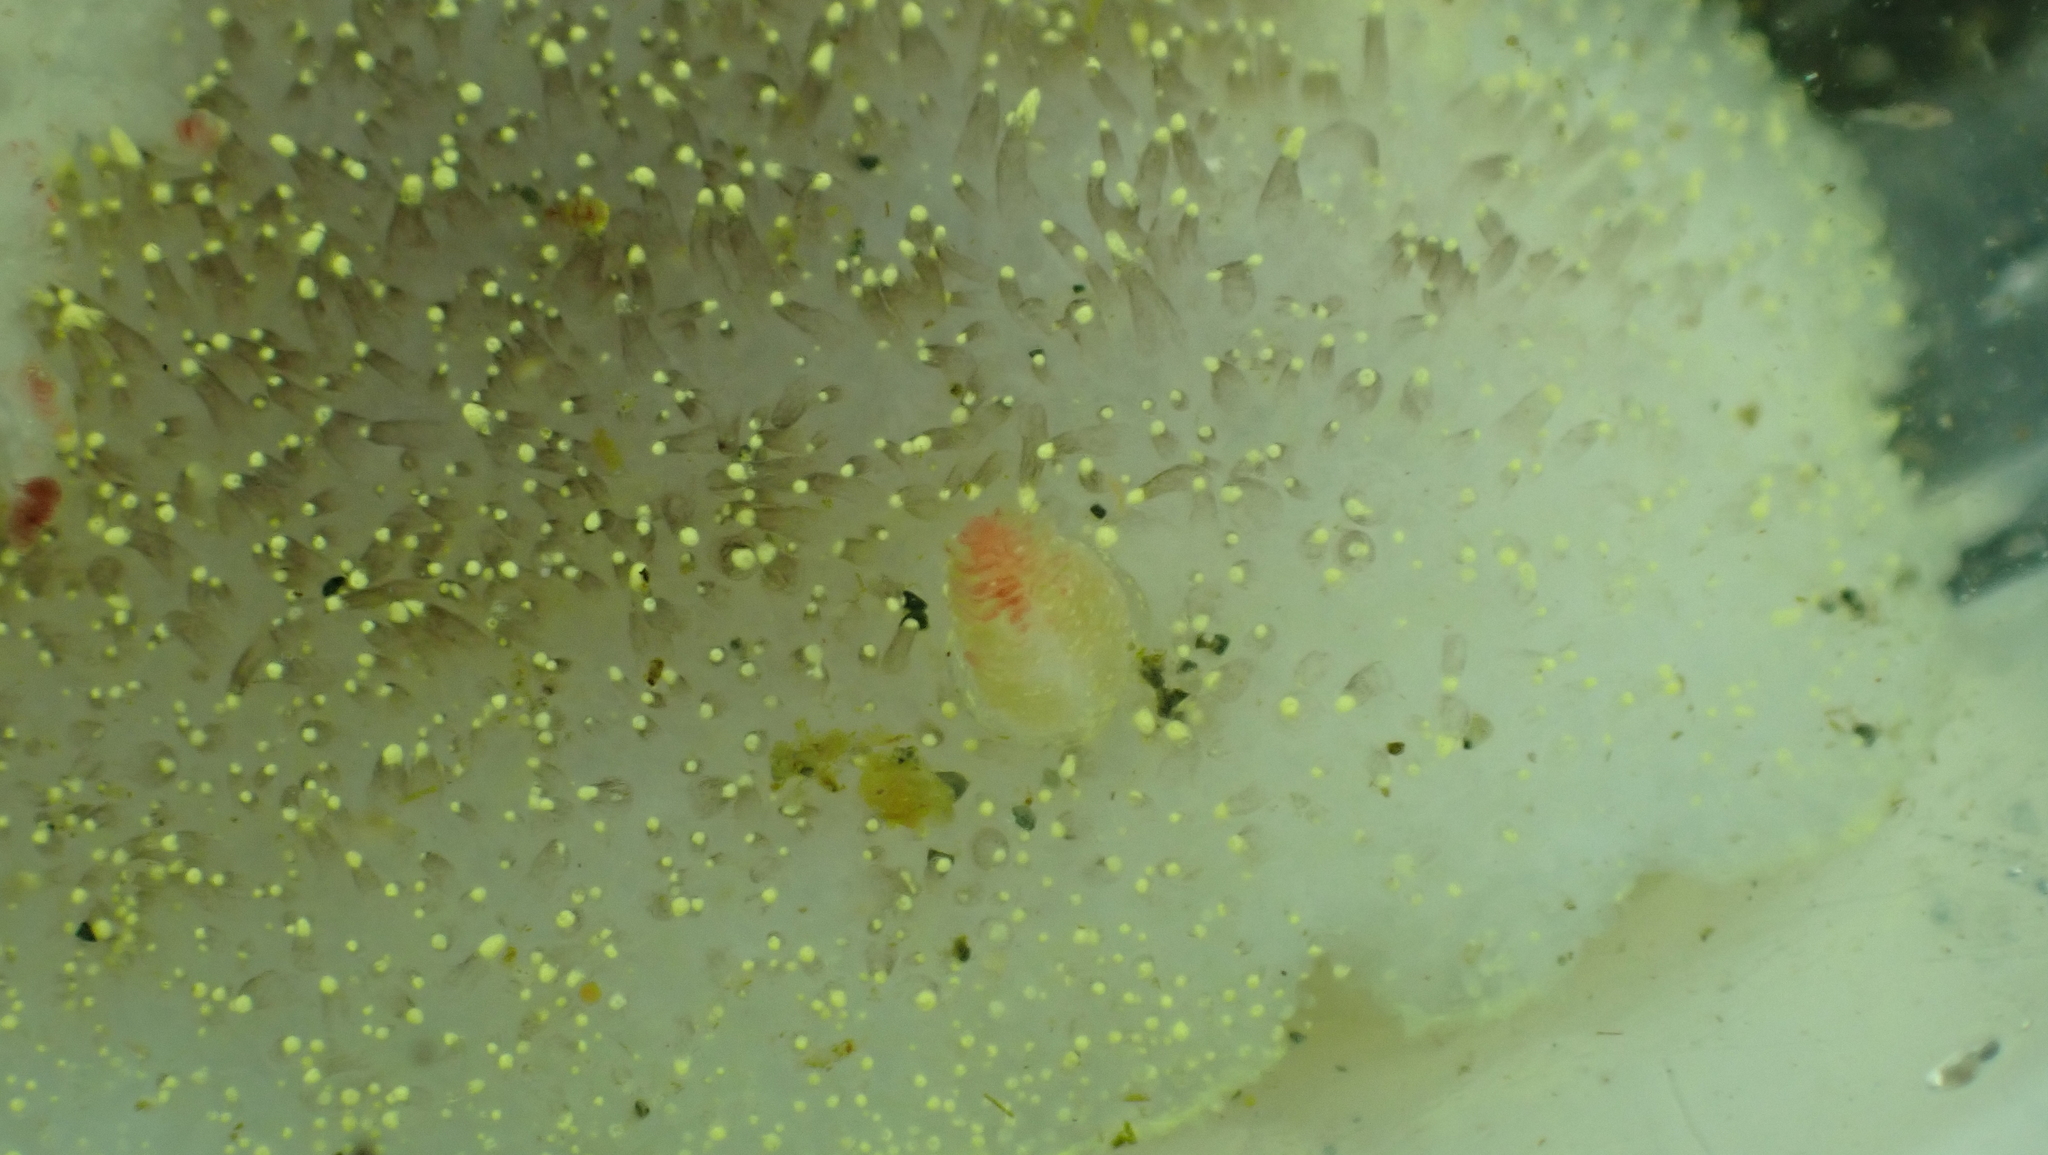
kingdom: Animalia
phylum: Mollusca
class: Gastropoda
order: Nudibranchia
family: Onchidorididae
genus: Acanthodoris
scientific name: Acanthodoris nanaimoensis
